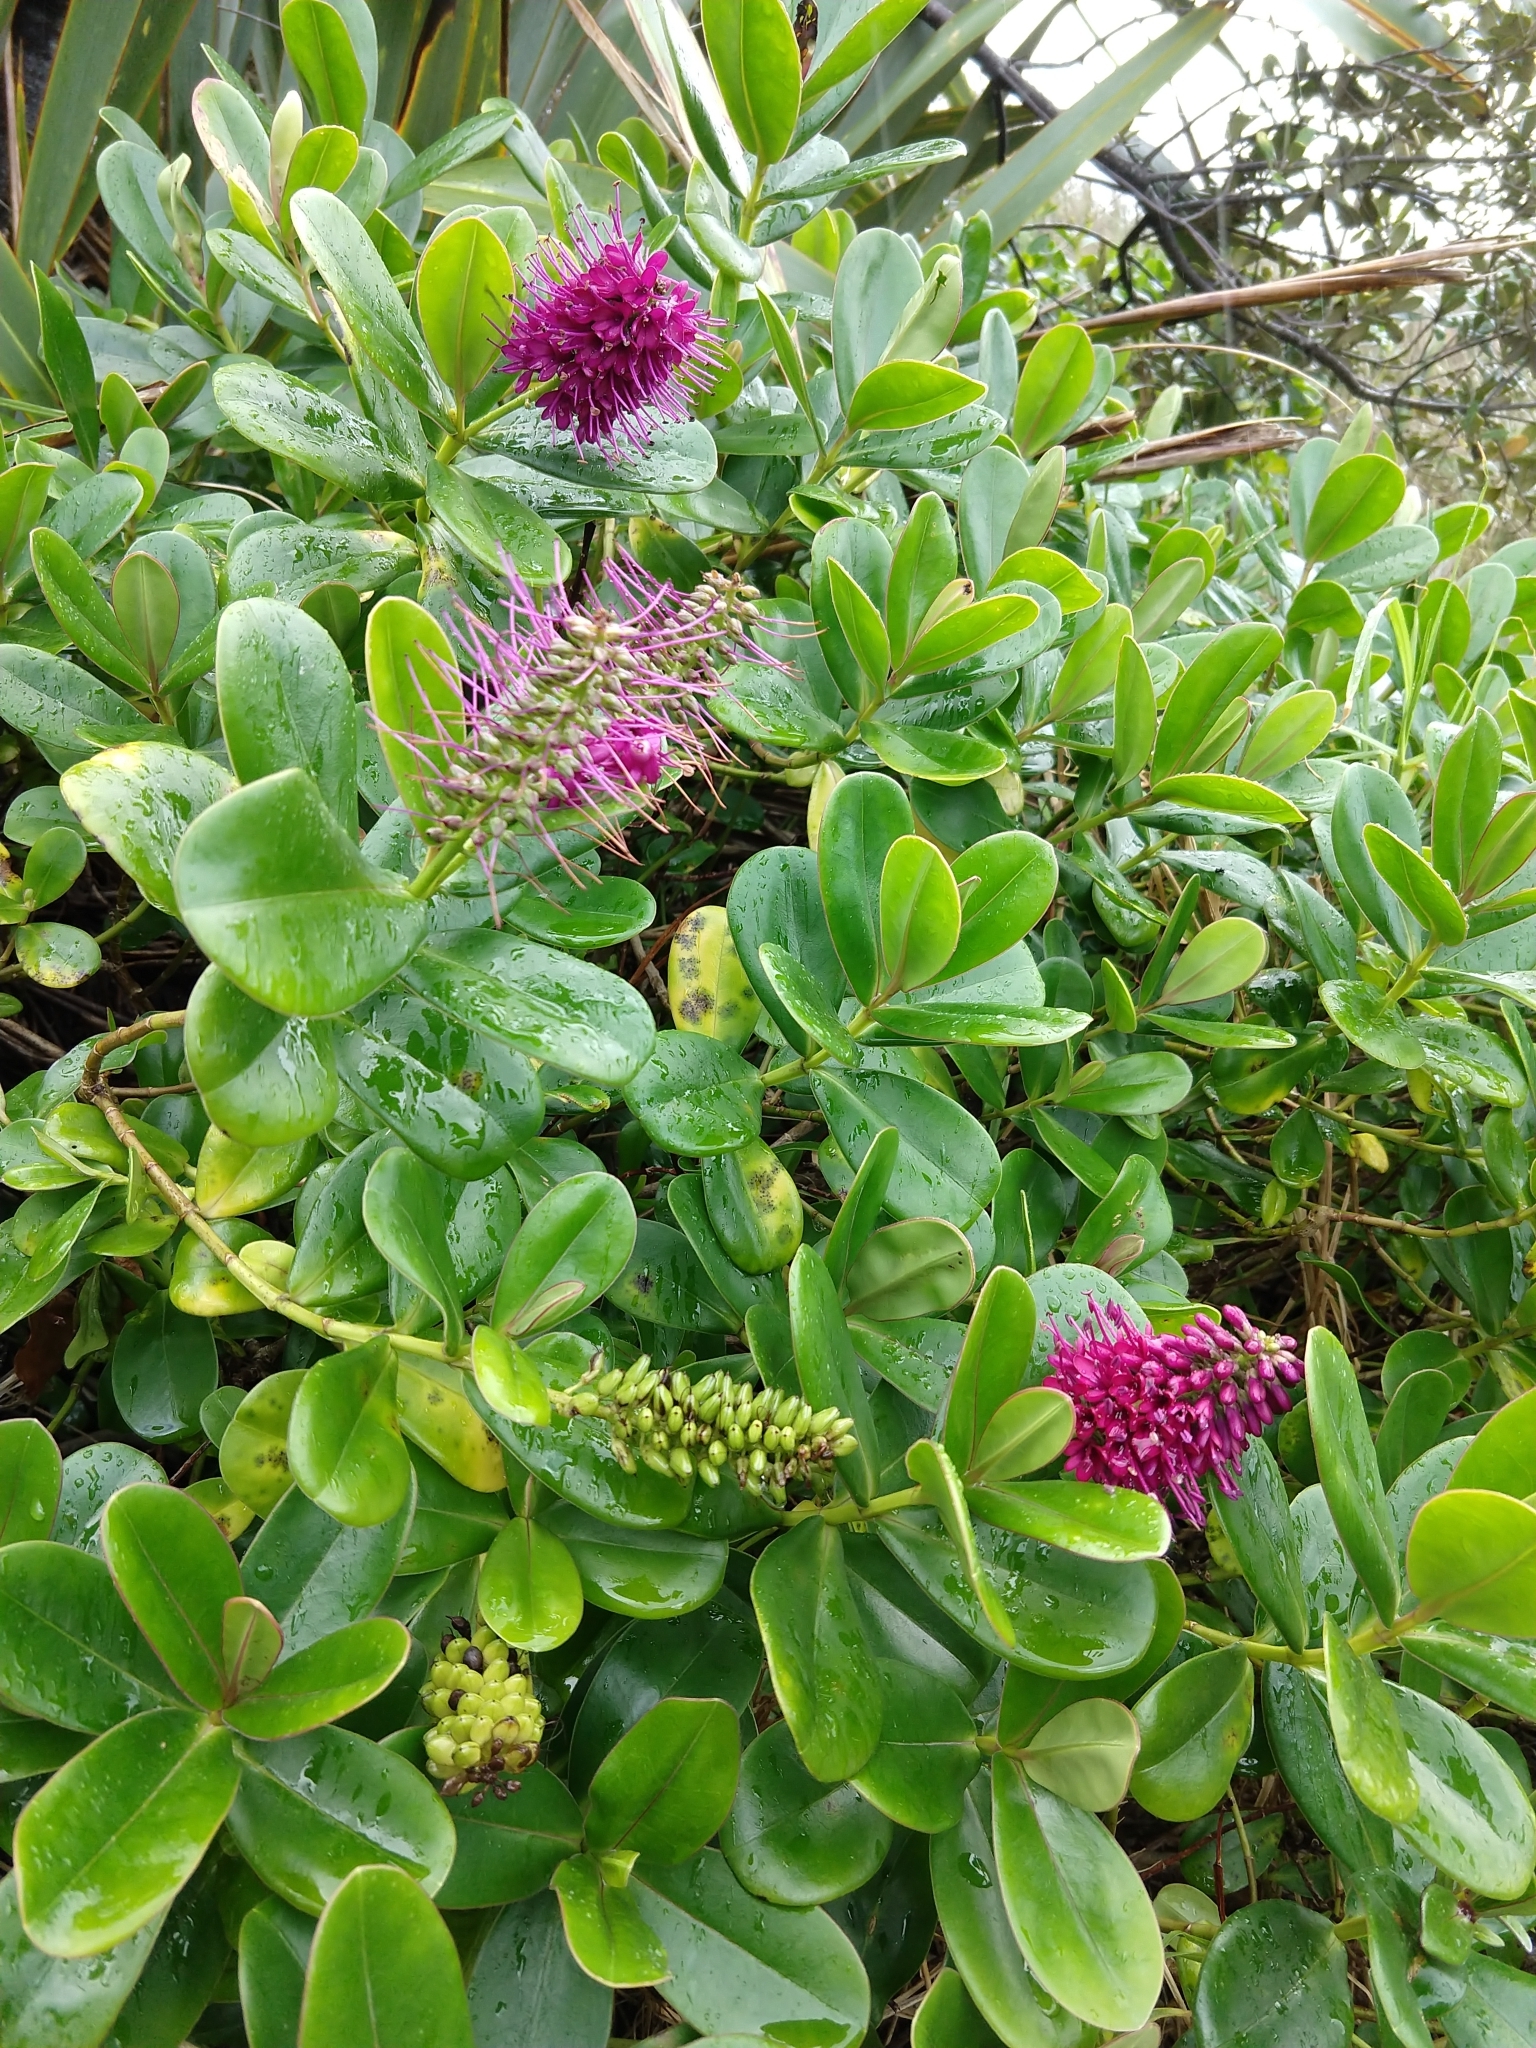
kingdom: Plantae
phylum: Tracheophyta
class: Magnoliopsida
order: Lamiales
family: Plantaginaceae
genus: Veronica
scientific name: Veronica speciosa
